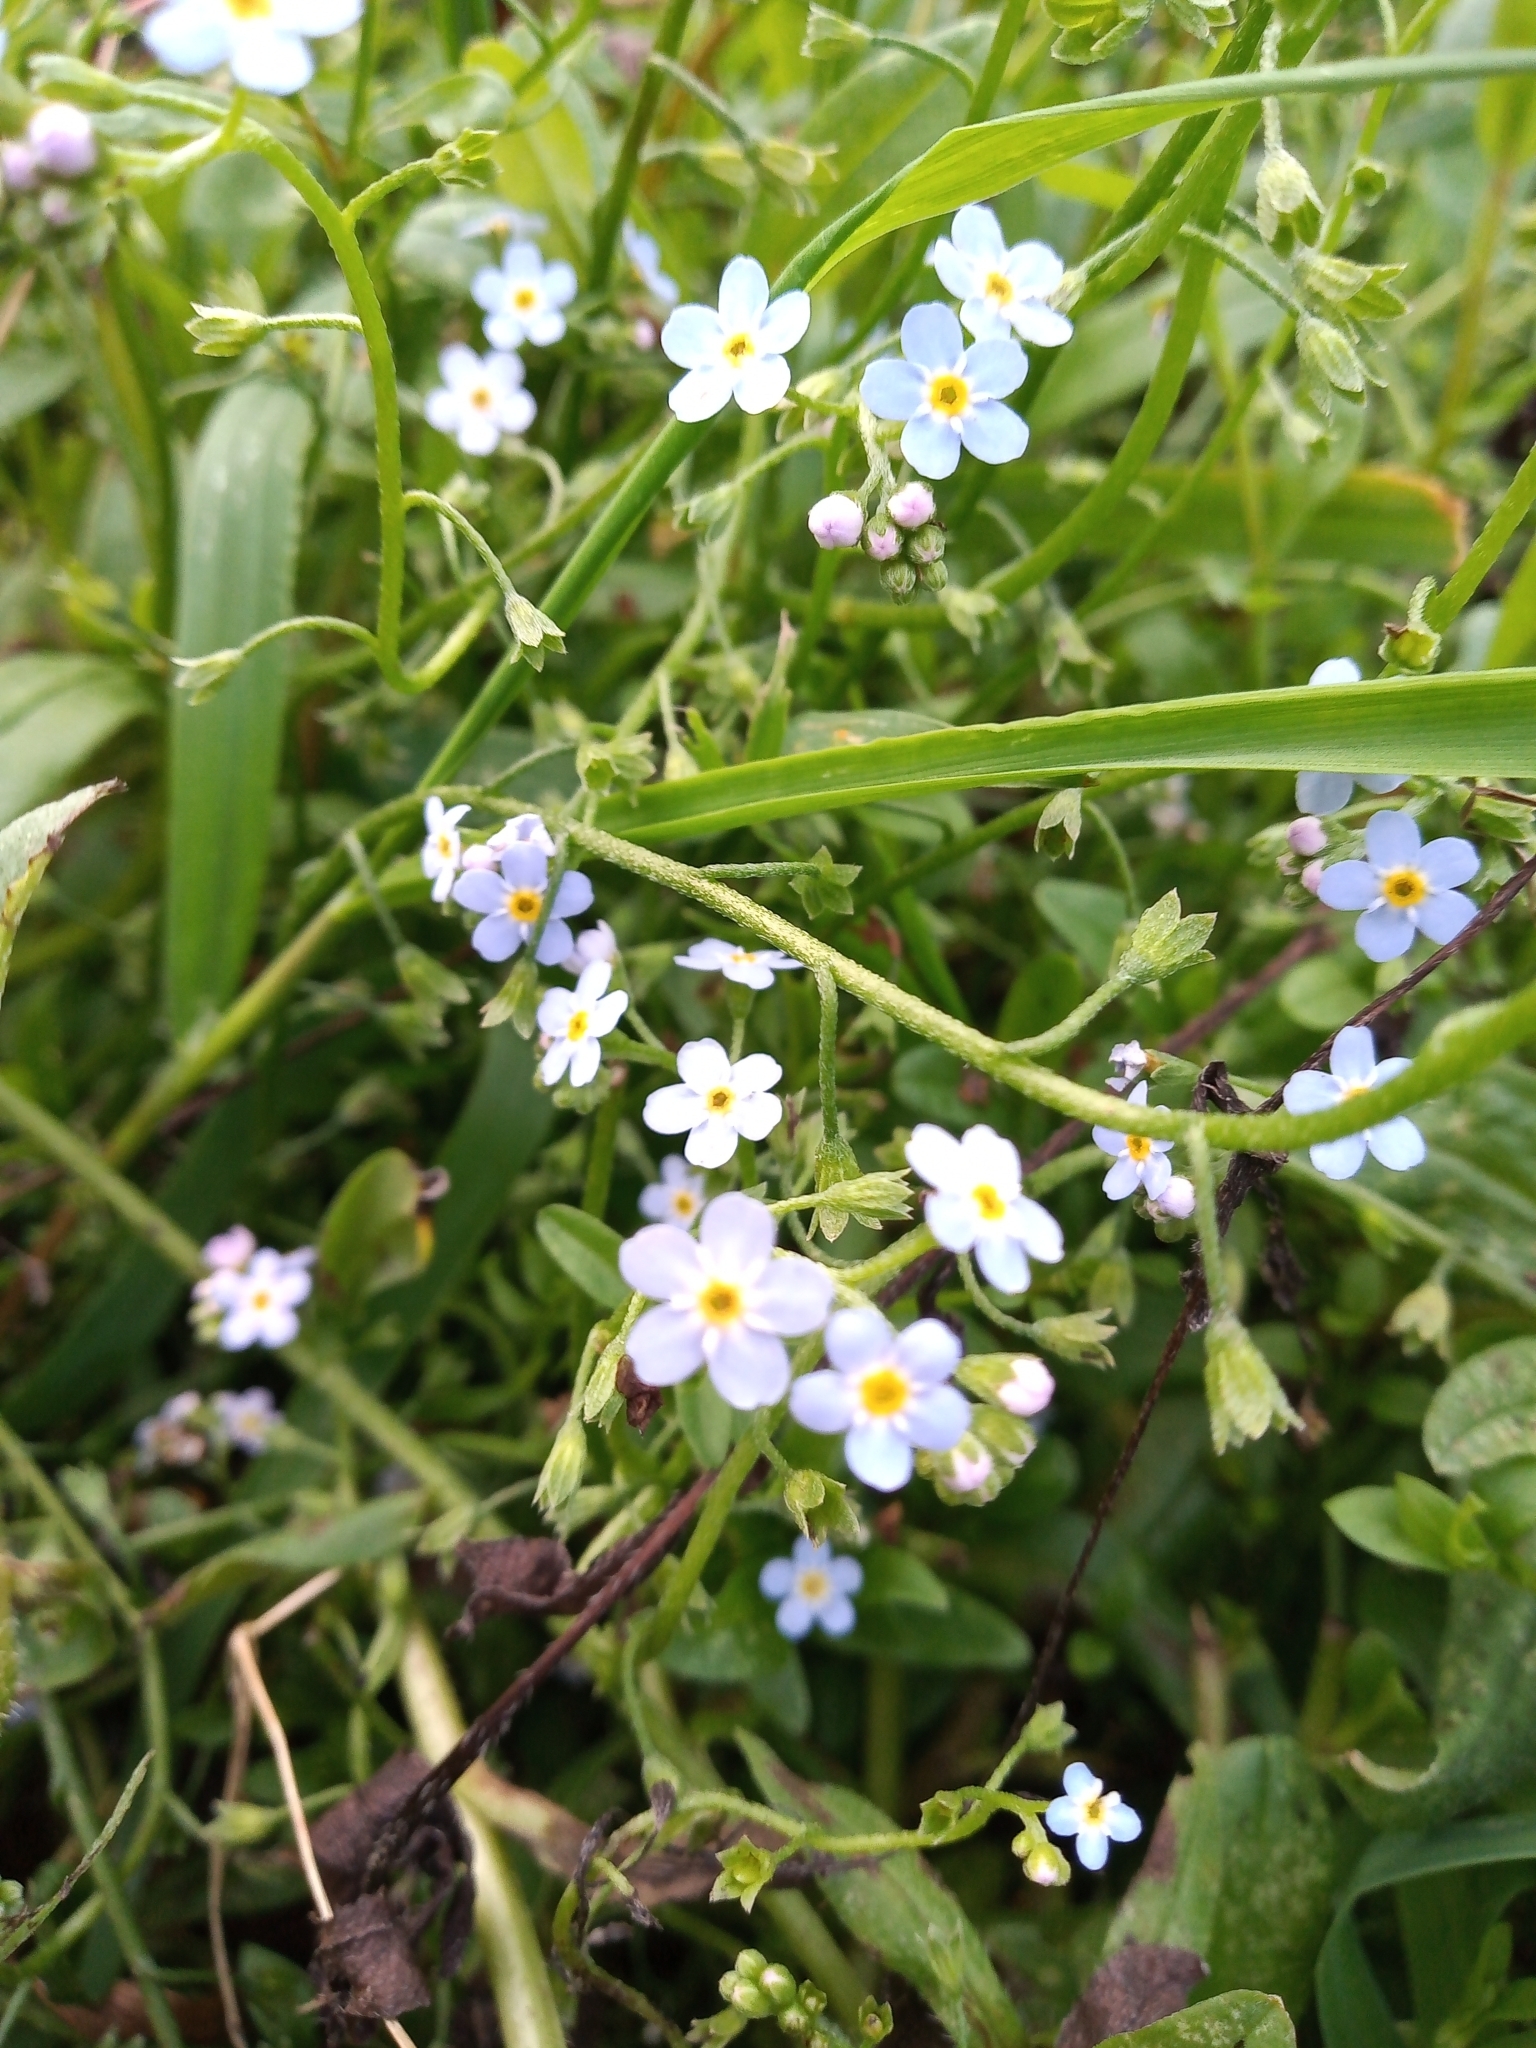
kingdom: Plantae
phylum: Tracheophyta
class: Magnoliopsida
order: Boraginales
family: Boraginaceae
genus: Myosotis
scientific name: Myosotis scorpioides
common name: Water forget-me-not
